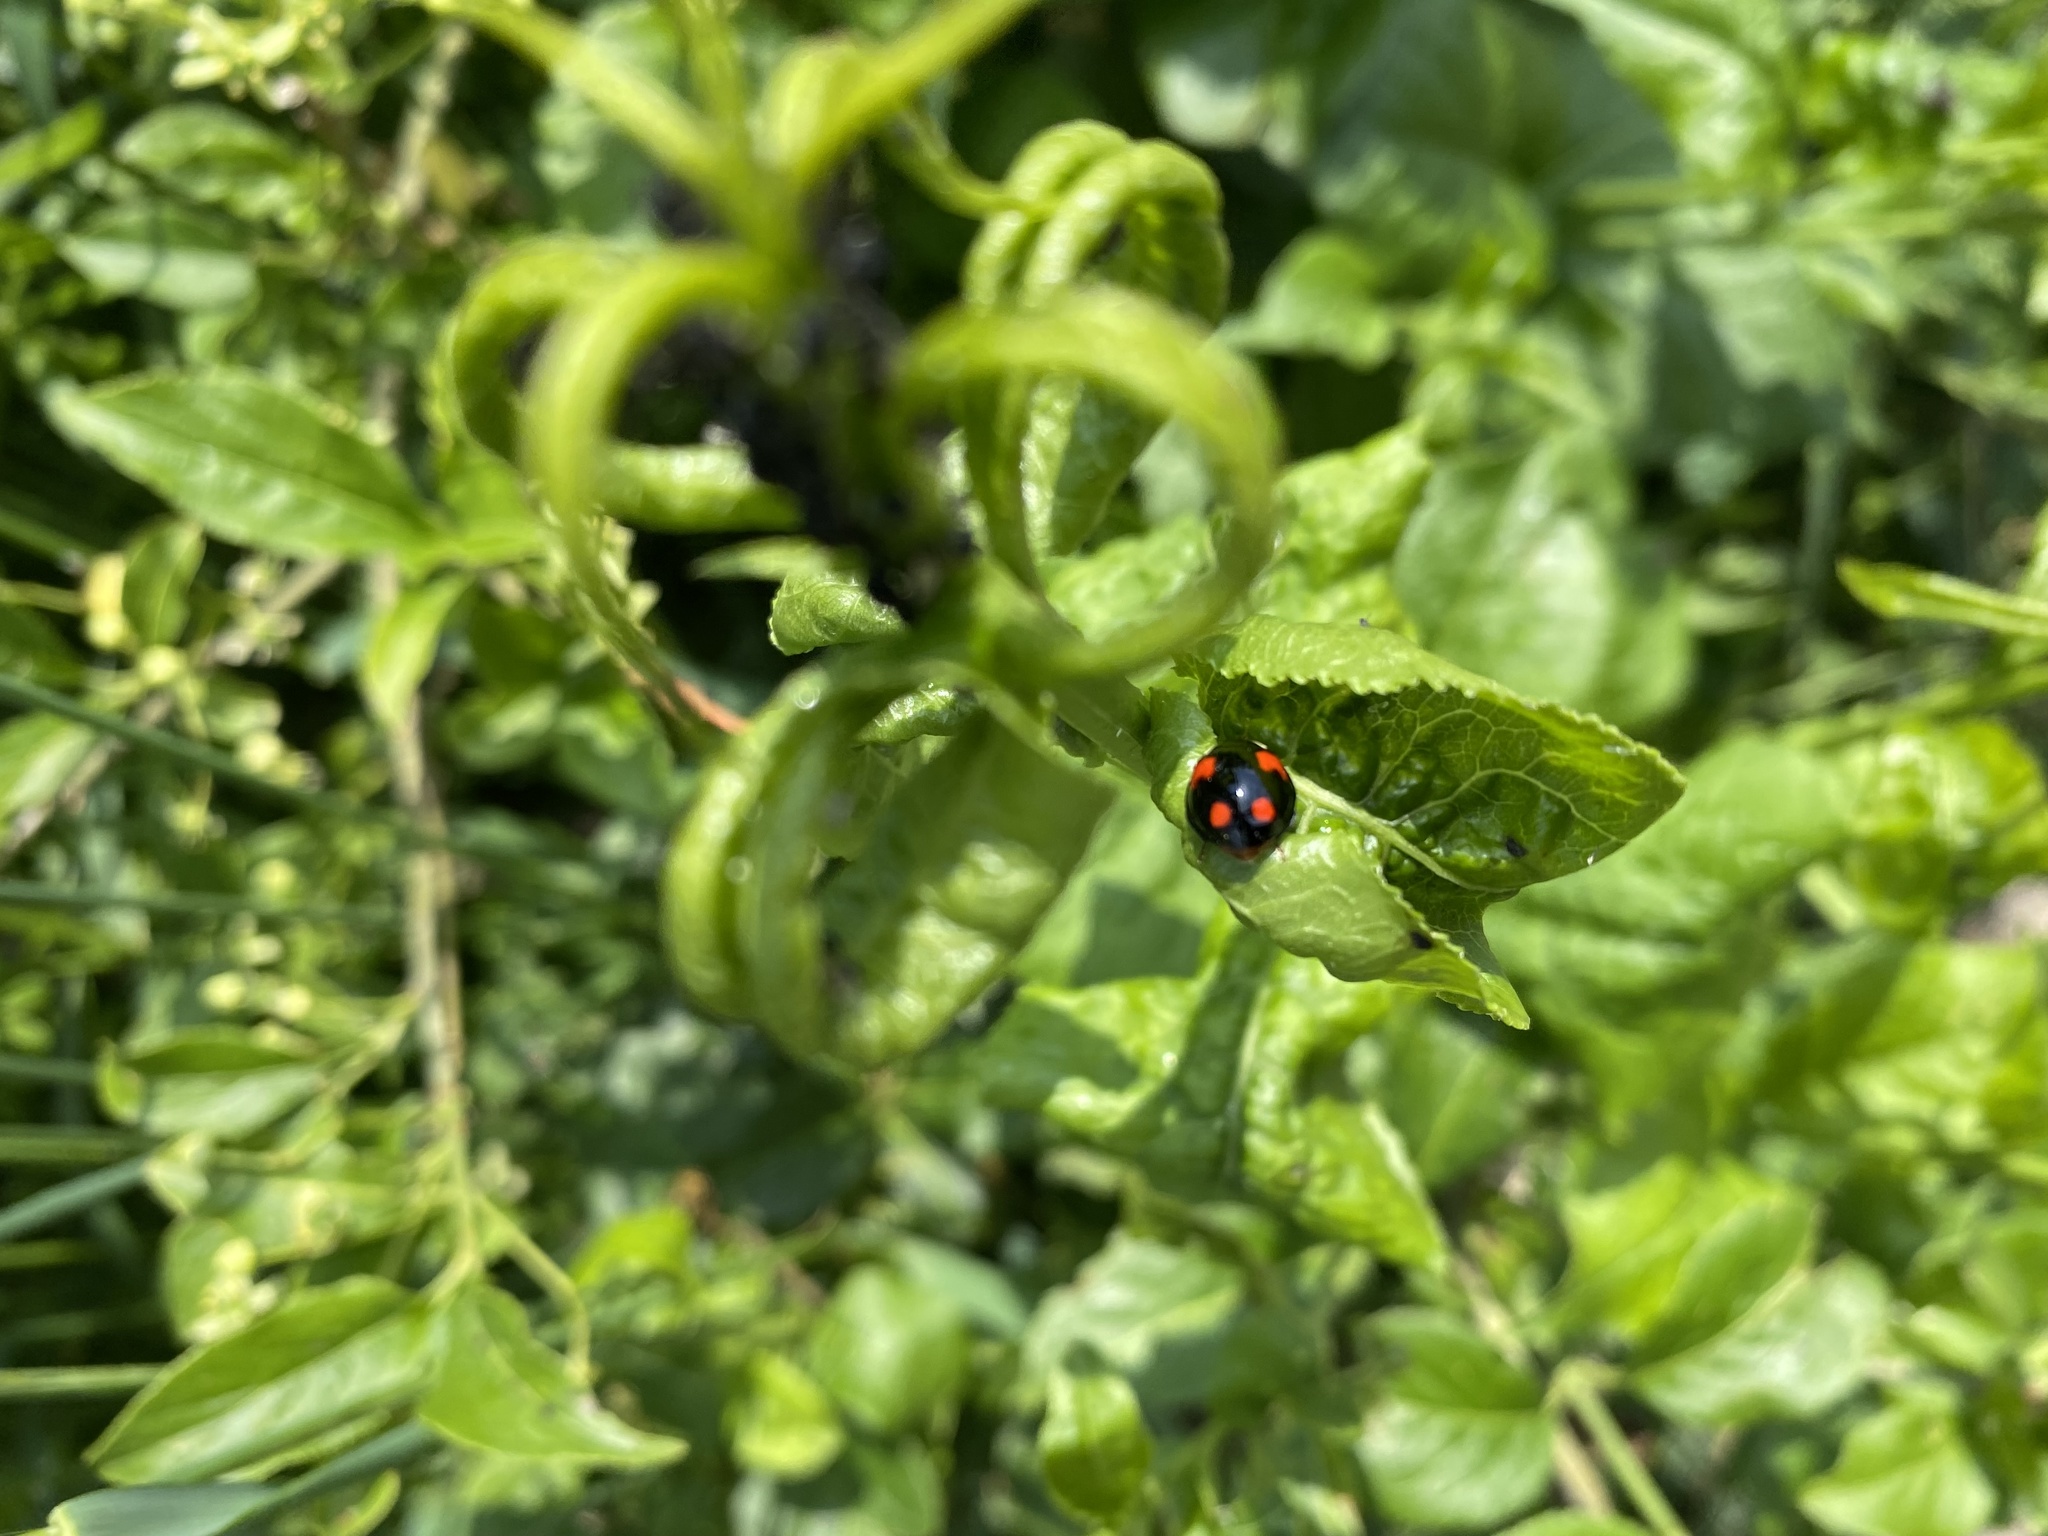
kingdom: Animalia
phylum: Arthropoda
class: Insecta
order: Coleoptera
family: Coccinellidae
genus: Harmonia
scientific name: Harmonia axyridis
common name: Harlequin ladybird
